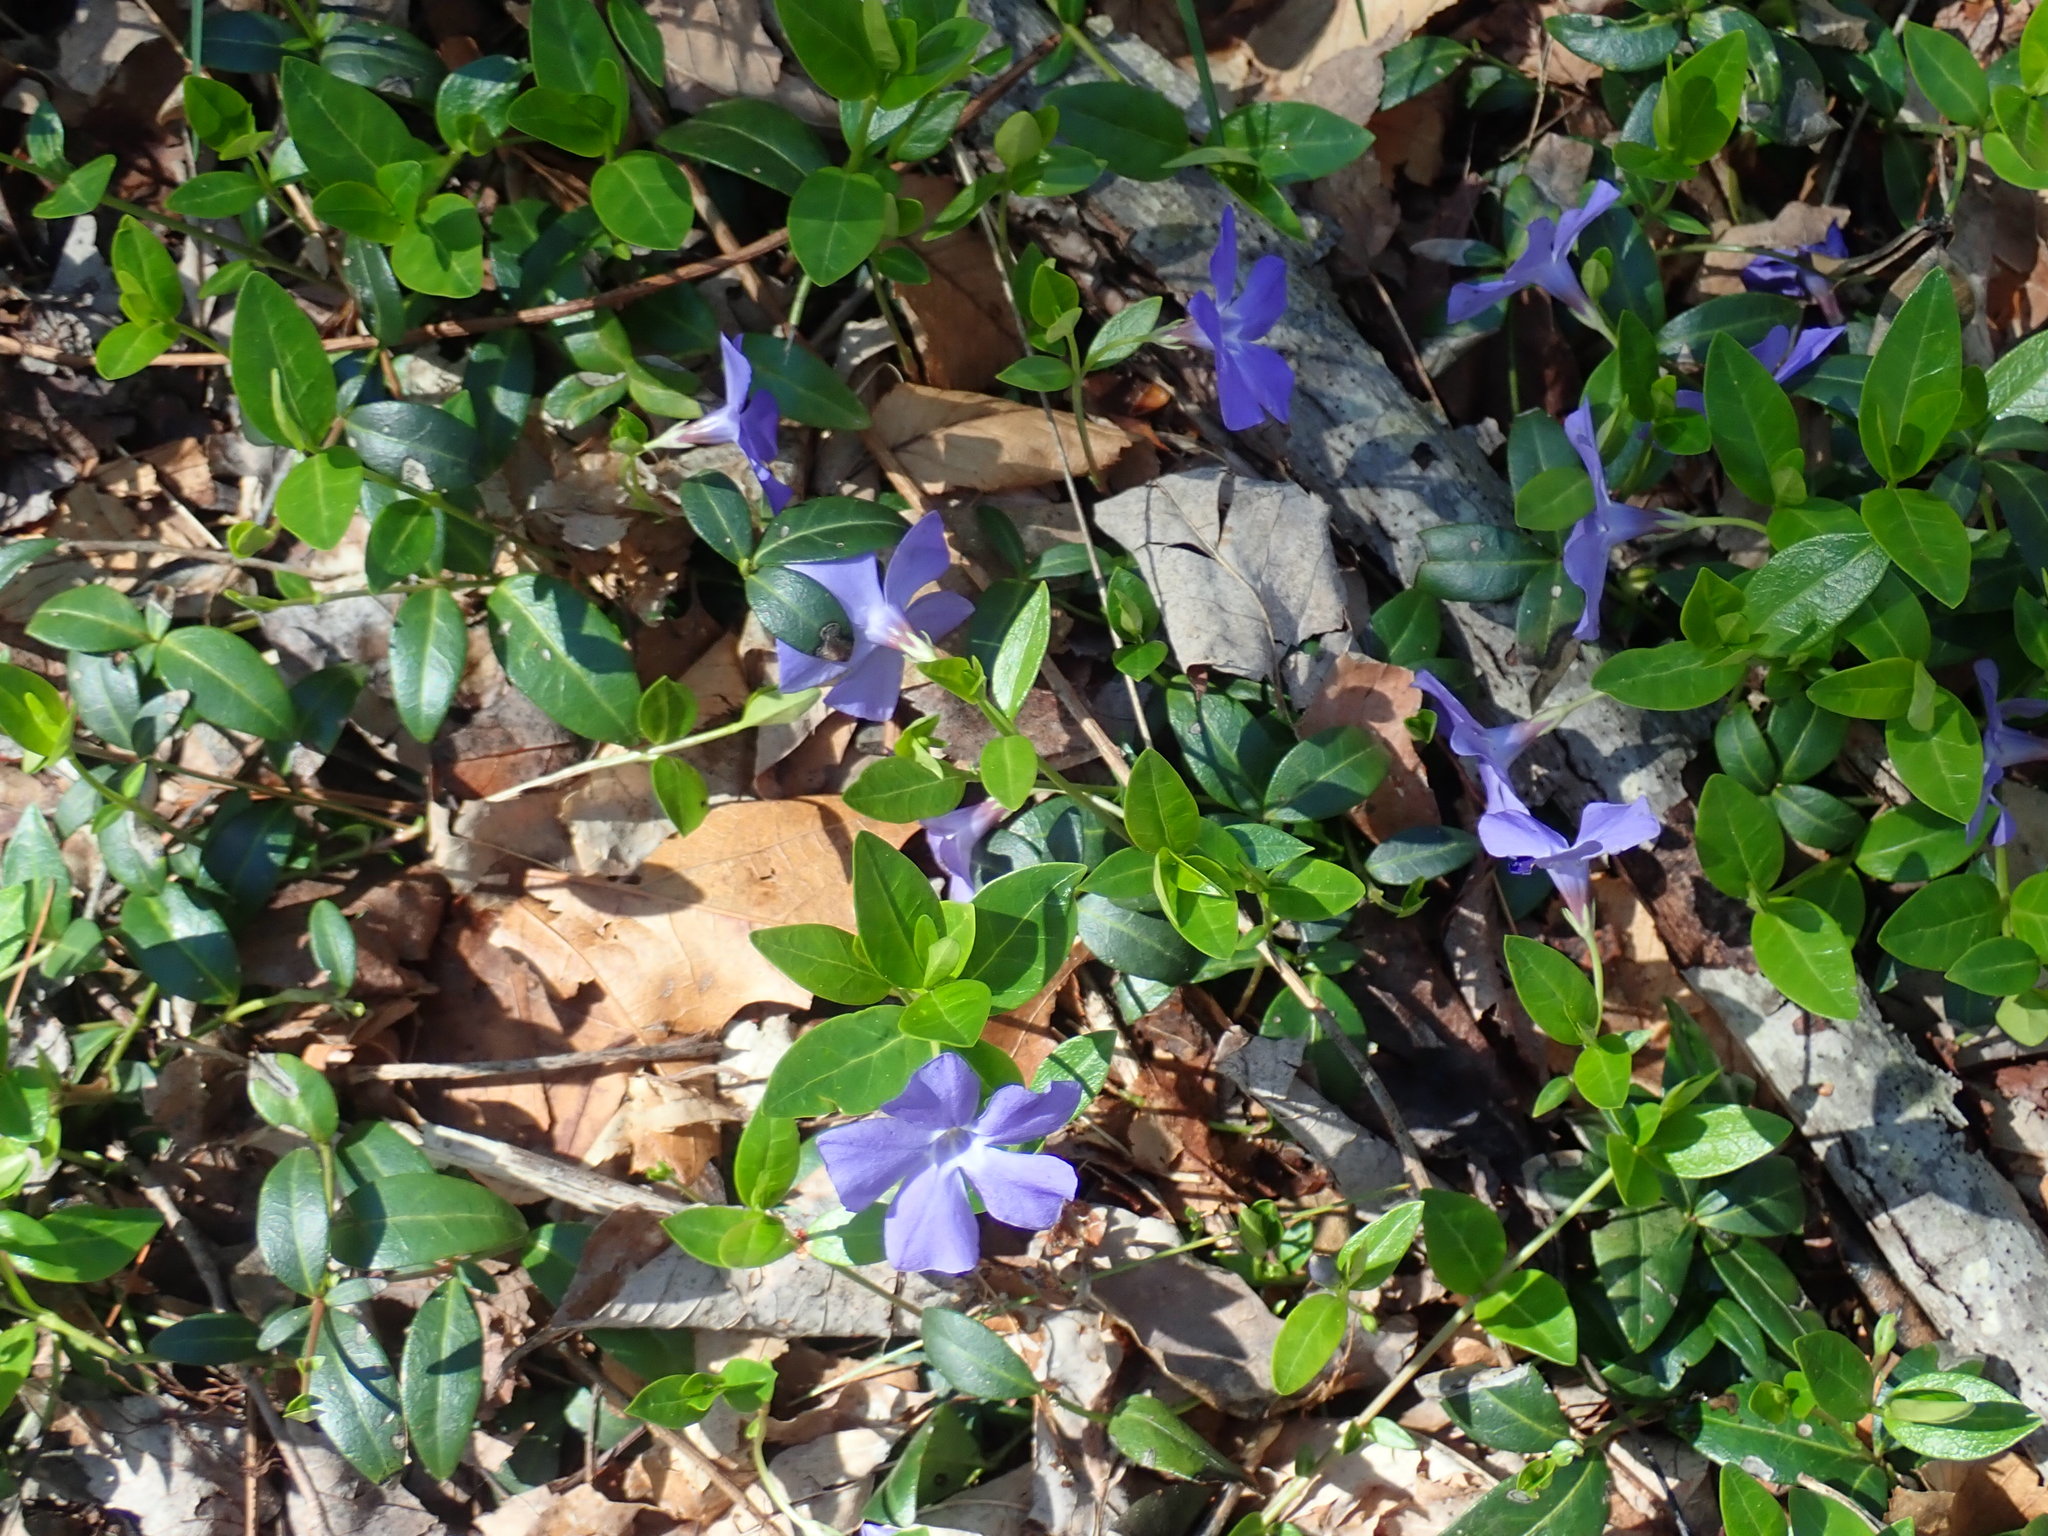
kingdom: Plantae
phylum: Tracheophyta
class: Magnoliopsida
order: Gentianales
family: Apocynaceae
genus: Vinca
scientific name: Vinca minor
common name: Lesser periwinkle
